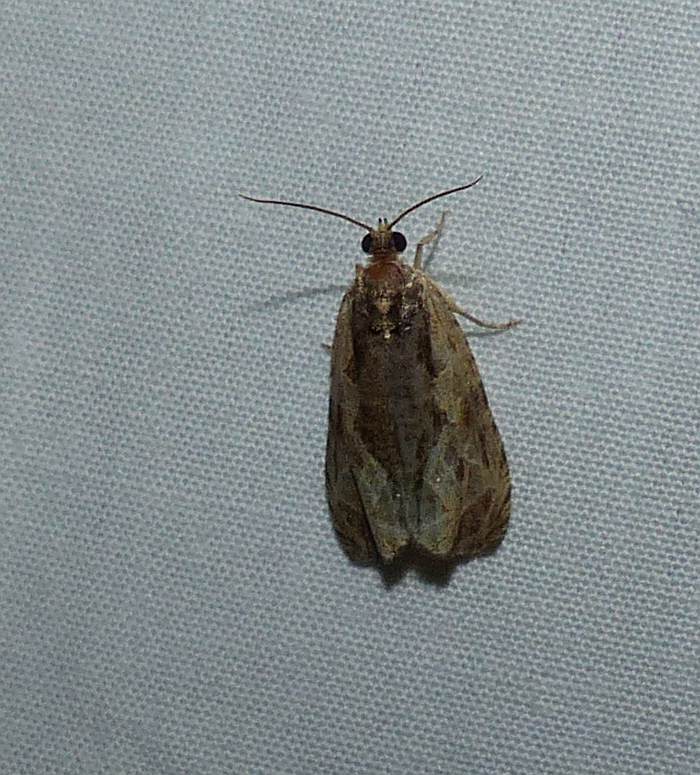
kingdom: Animalia
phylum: Arthropoda
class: Insecta
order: Lepidoptera
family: Tortricidae
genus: Olethreutes
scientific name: Olethreutes nigranum
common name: Variable nigranum moth
